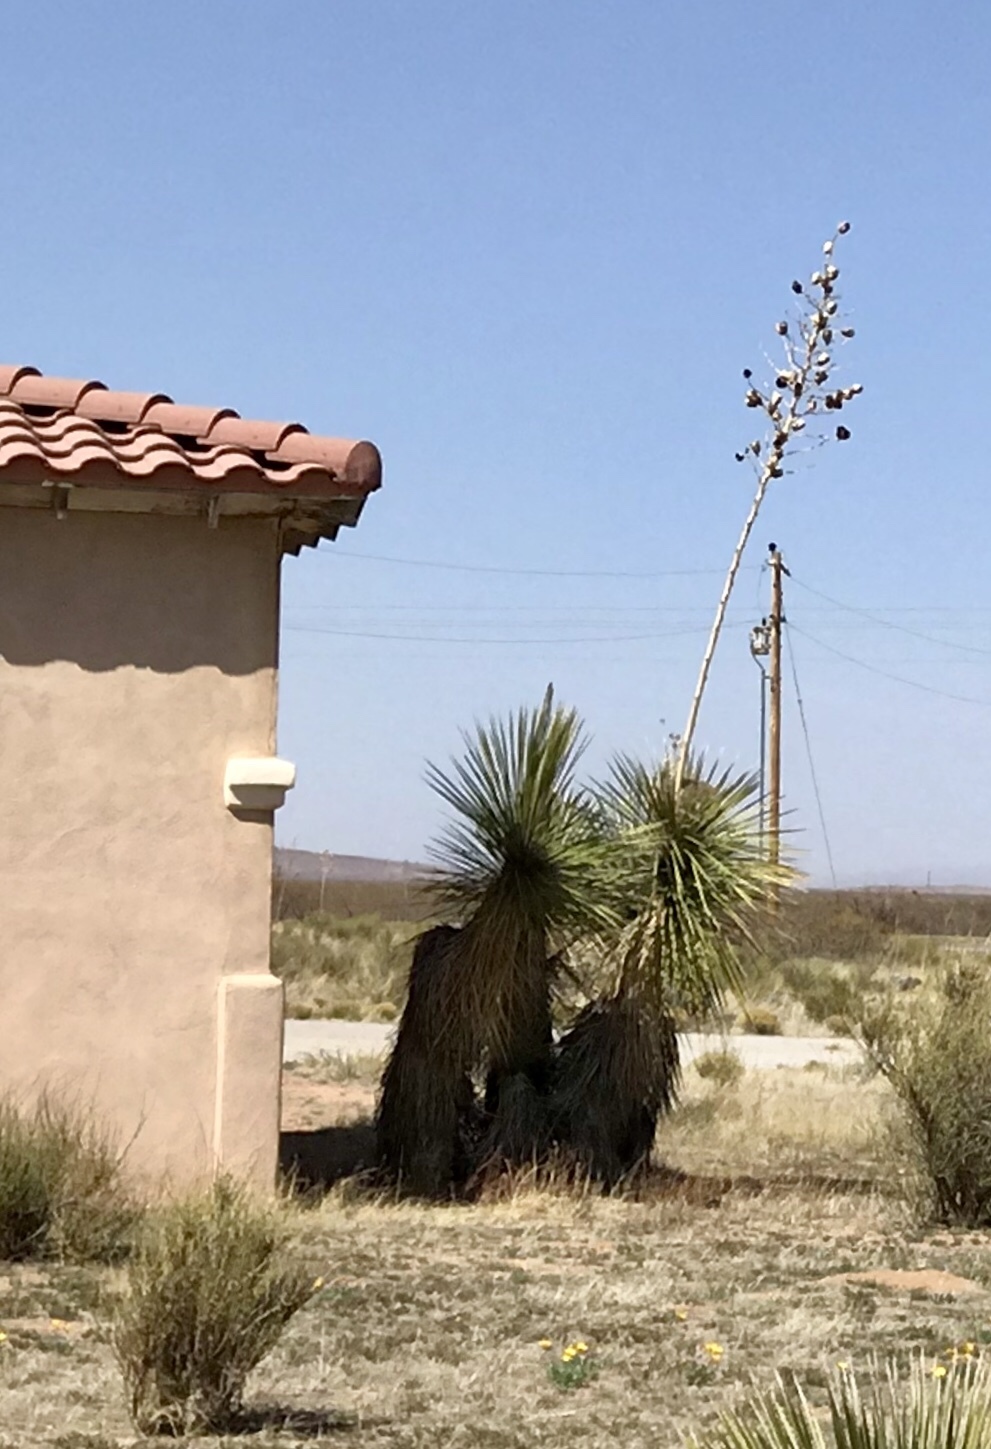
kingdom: Plantae
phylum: Tracheophyta
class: Liliopsida
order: Asparagales
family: Asparagaceae
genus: Yucca
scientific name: Yucca elata
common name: Palmella
